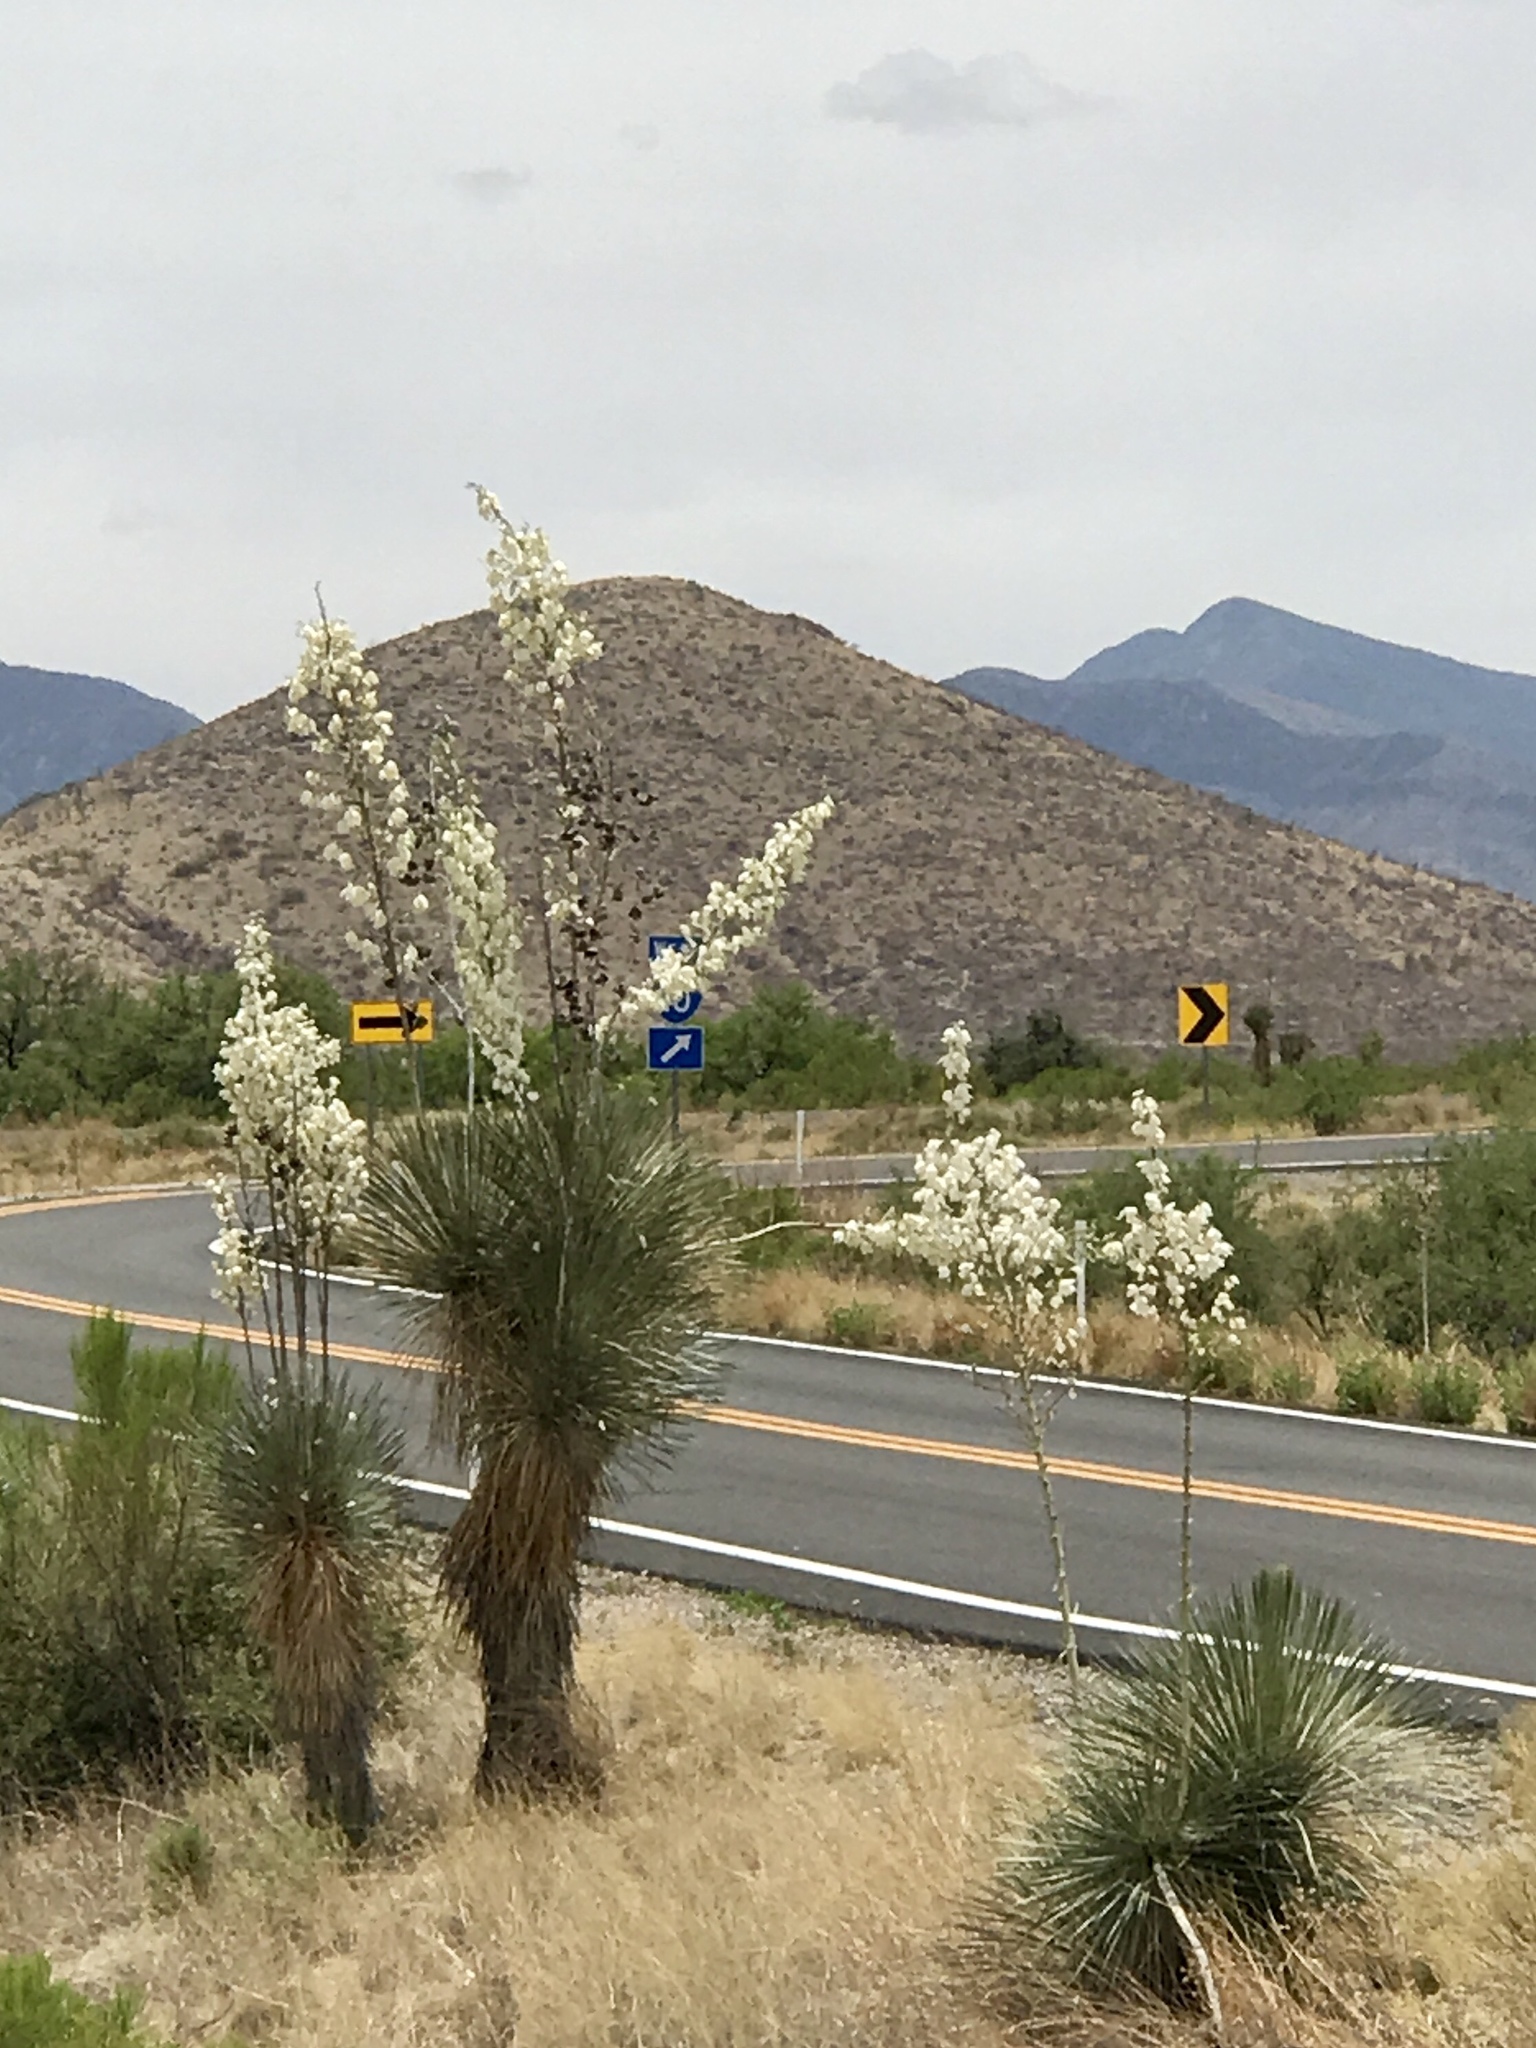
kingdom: Plantae
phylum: Tracheophyta
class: Liliopsida
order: Asparagales
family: Asparagaceae
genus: Yucca
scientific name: Yucca elata
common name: Palmella
